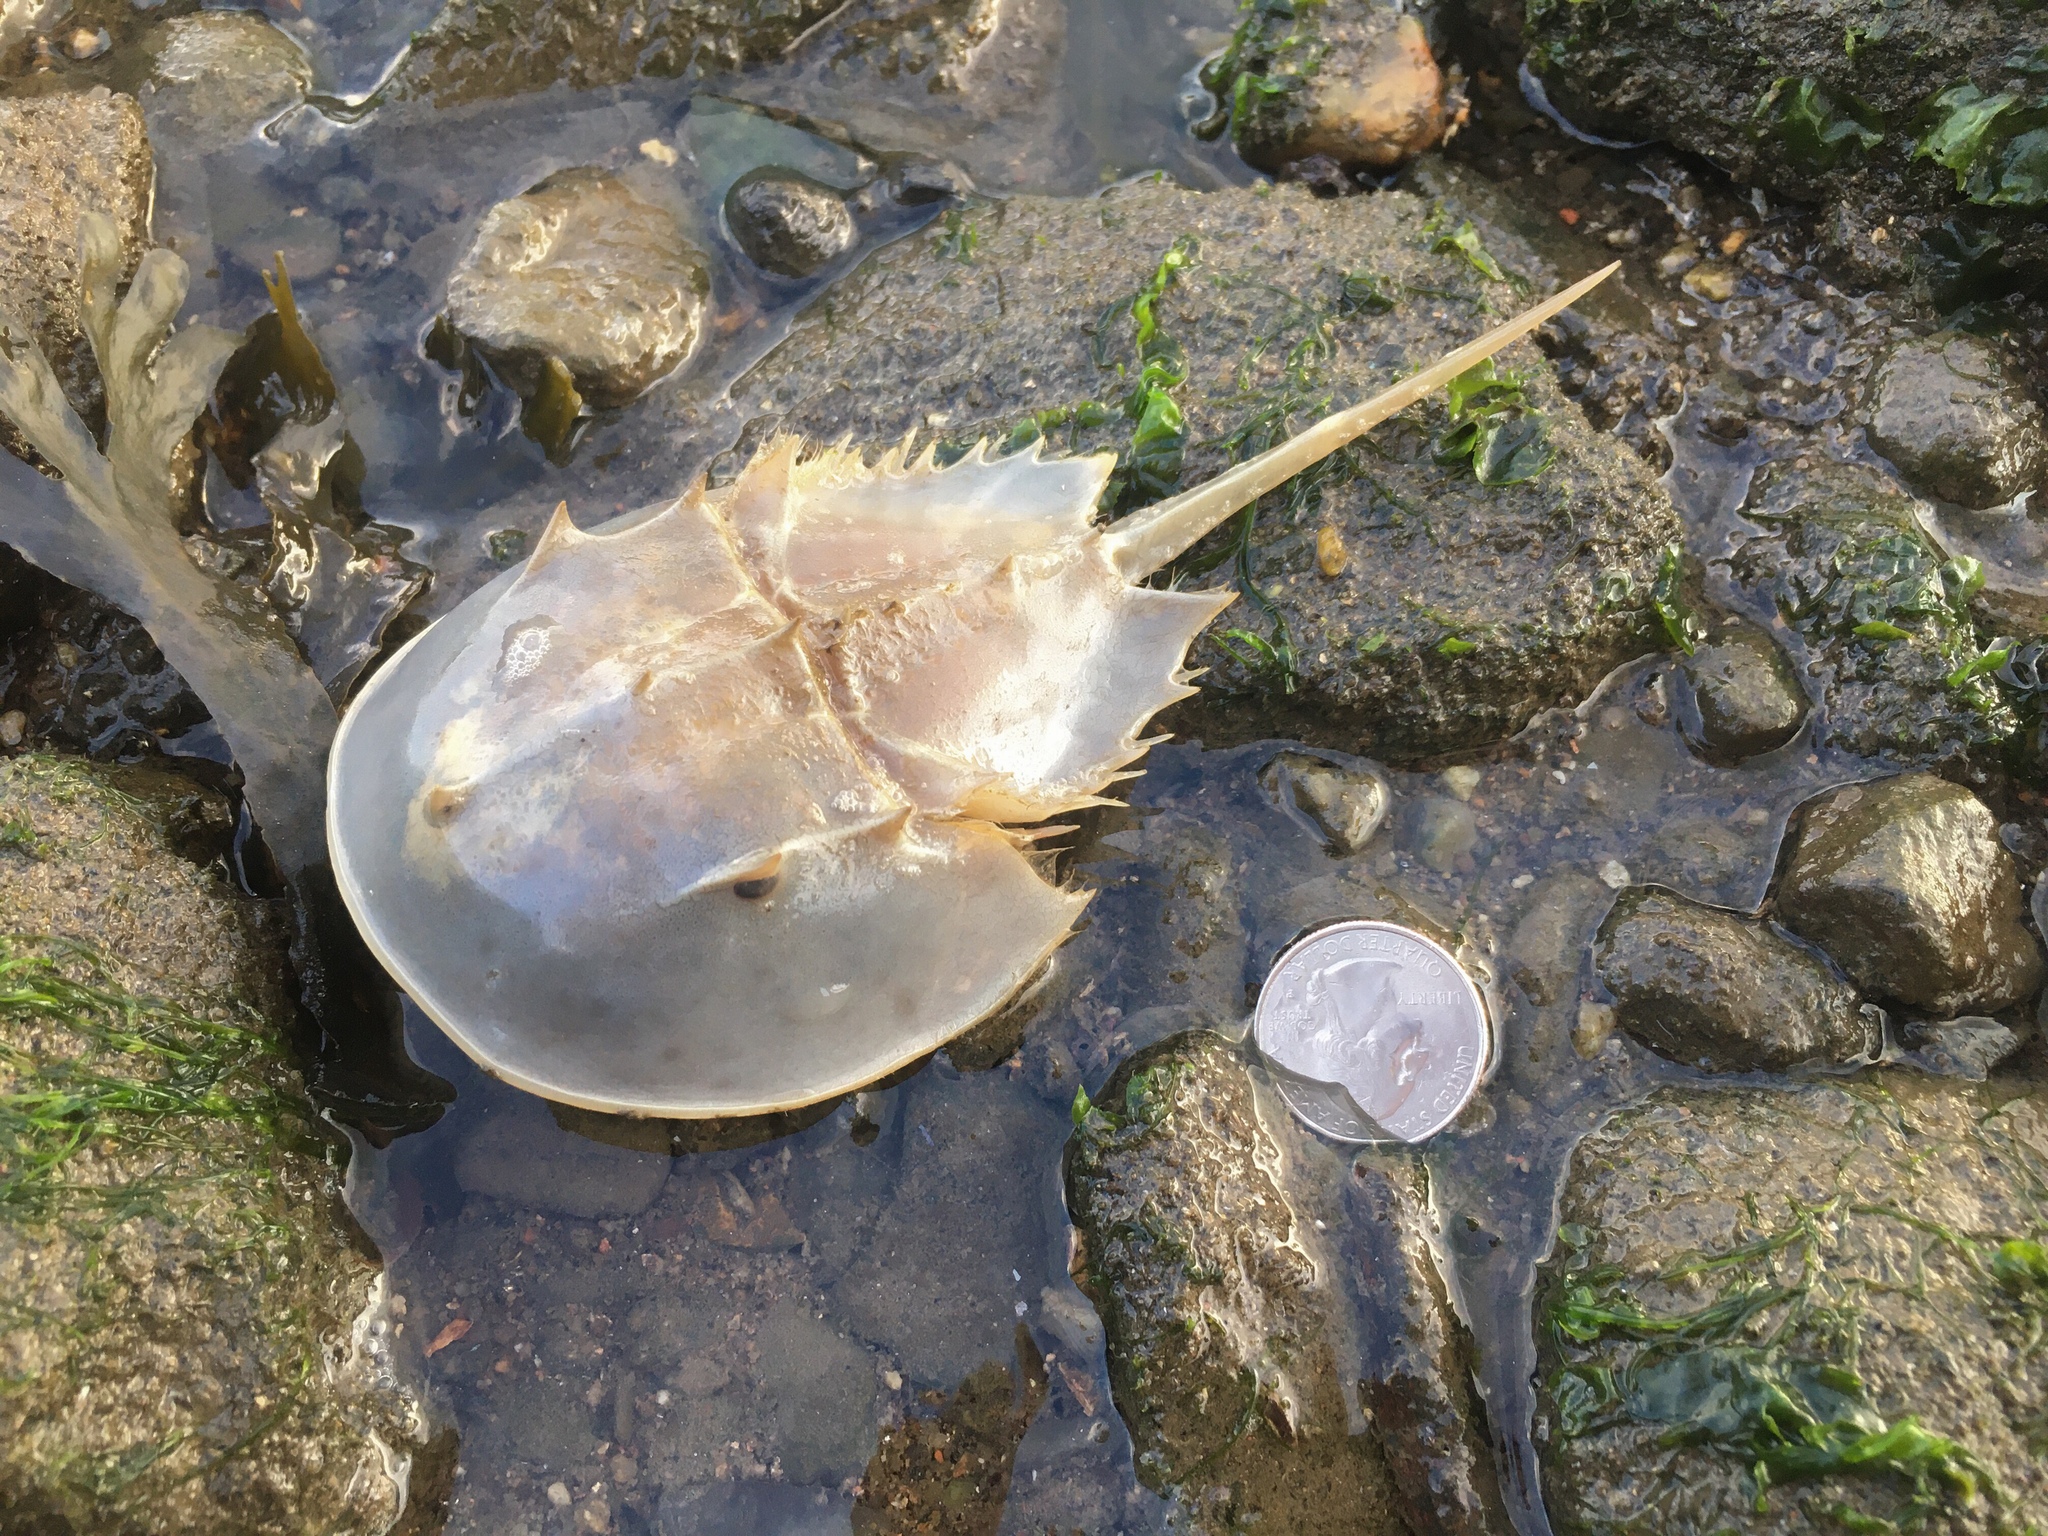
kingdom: Animalia
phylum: Arthropoda
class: Merostomata
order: Xiphosurida
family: Limulidae
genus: Limulus
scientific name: Limulus polyphemus
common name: Horseshoe crab
